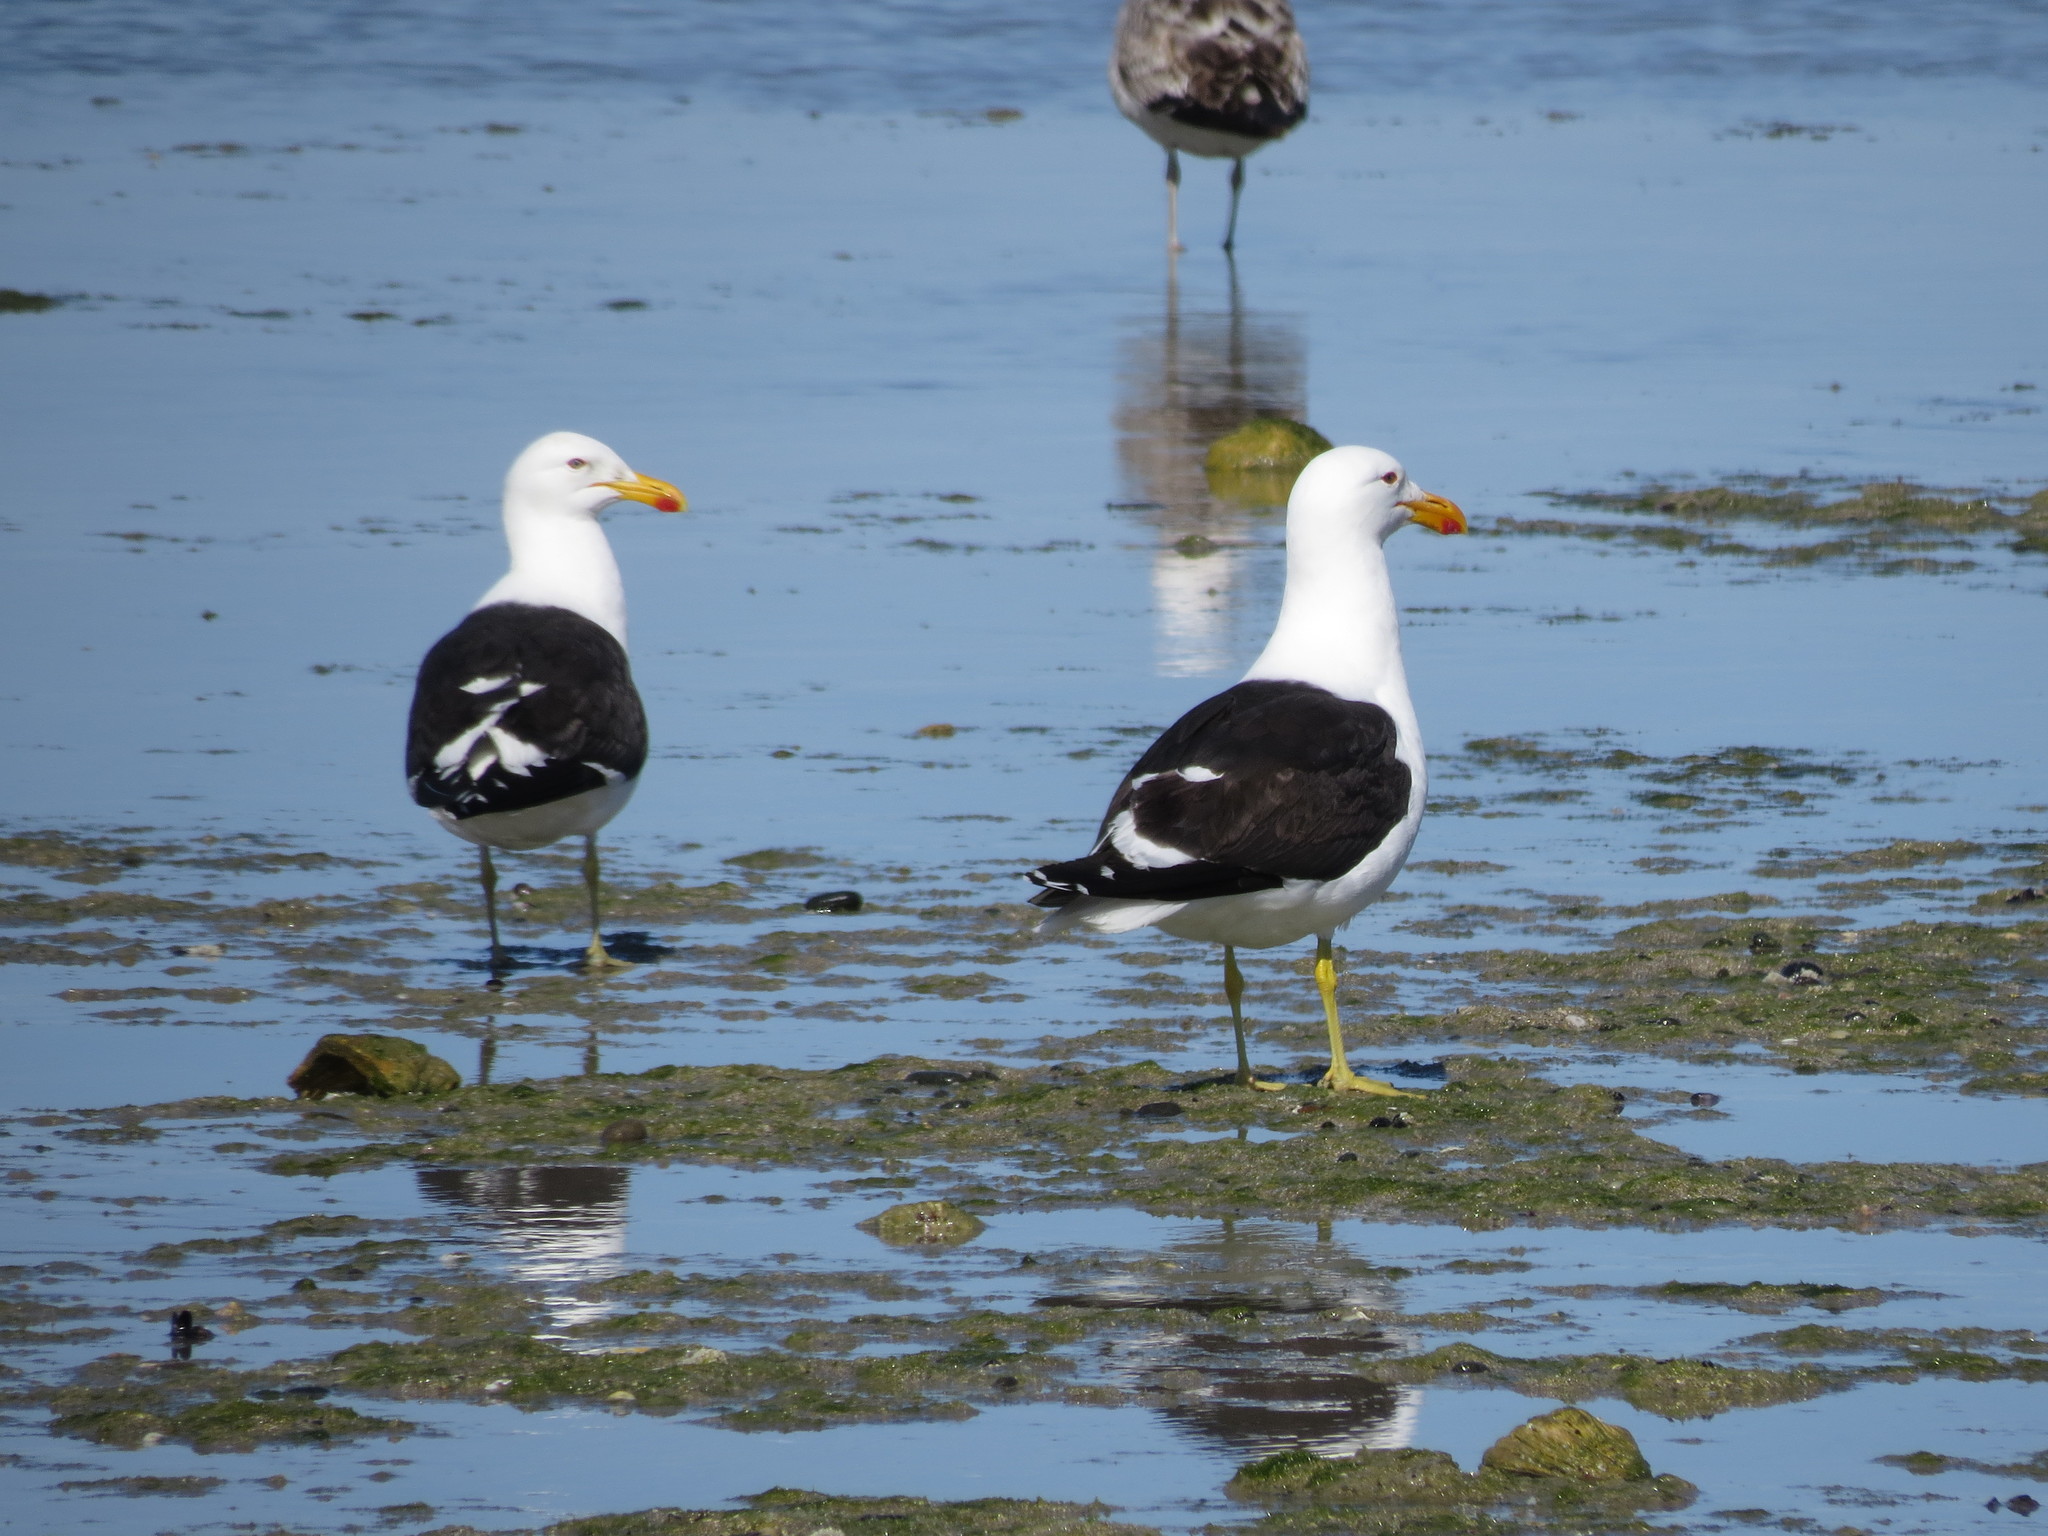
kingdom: Animalia
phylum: Chordata
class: Aves
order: Charadriiformes
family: Laridae
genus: Larus
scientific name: Larus dominicanus
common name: Kelp gull
